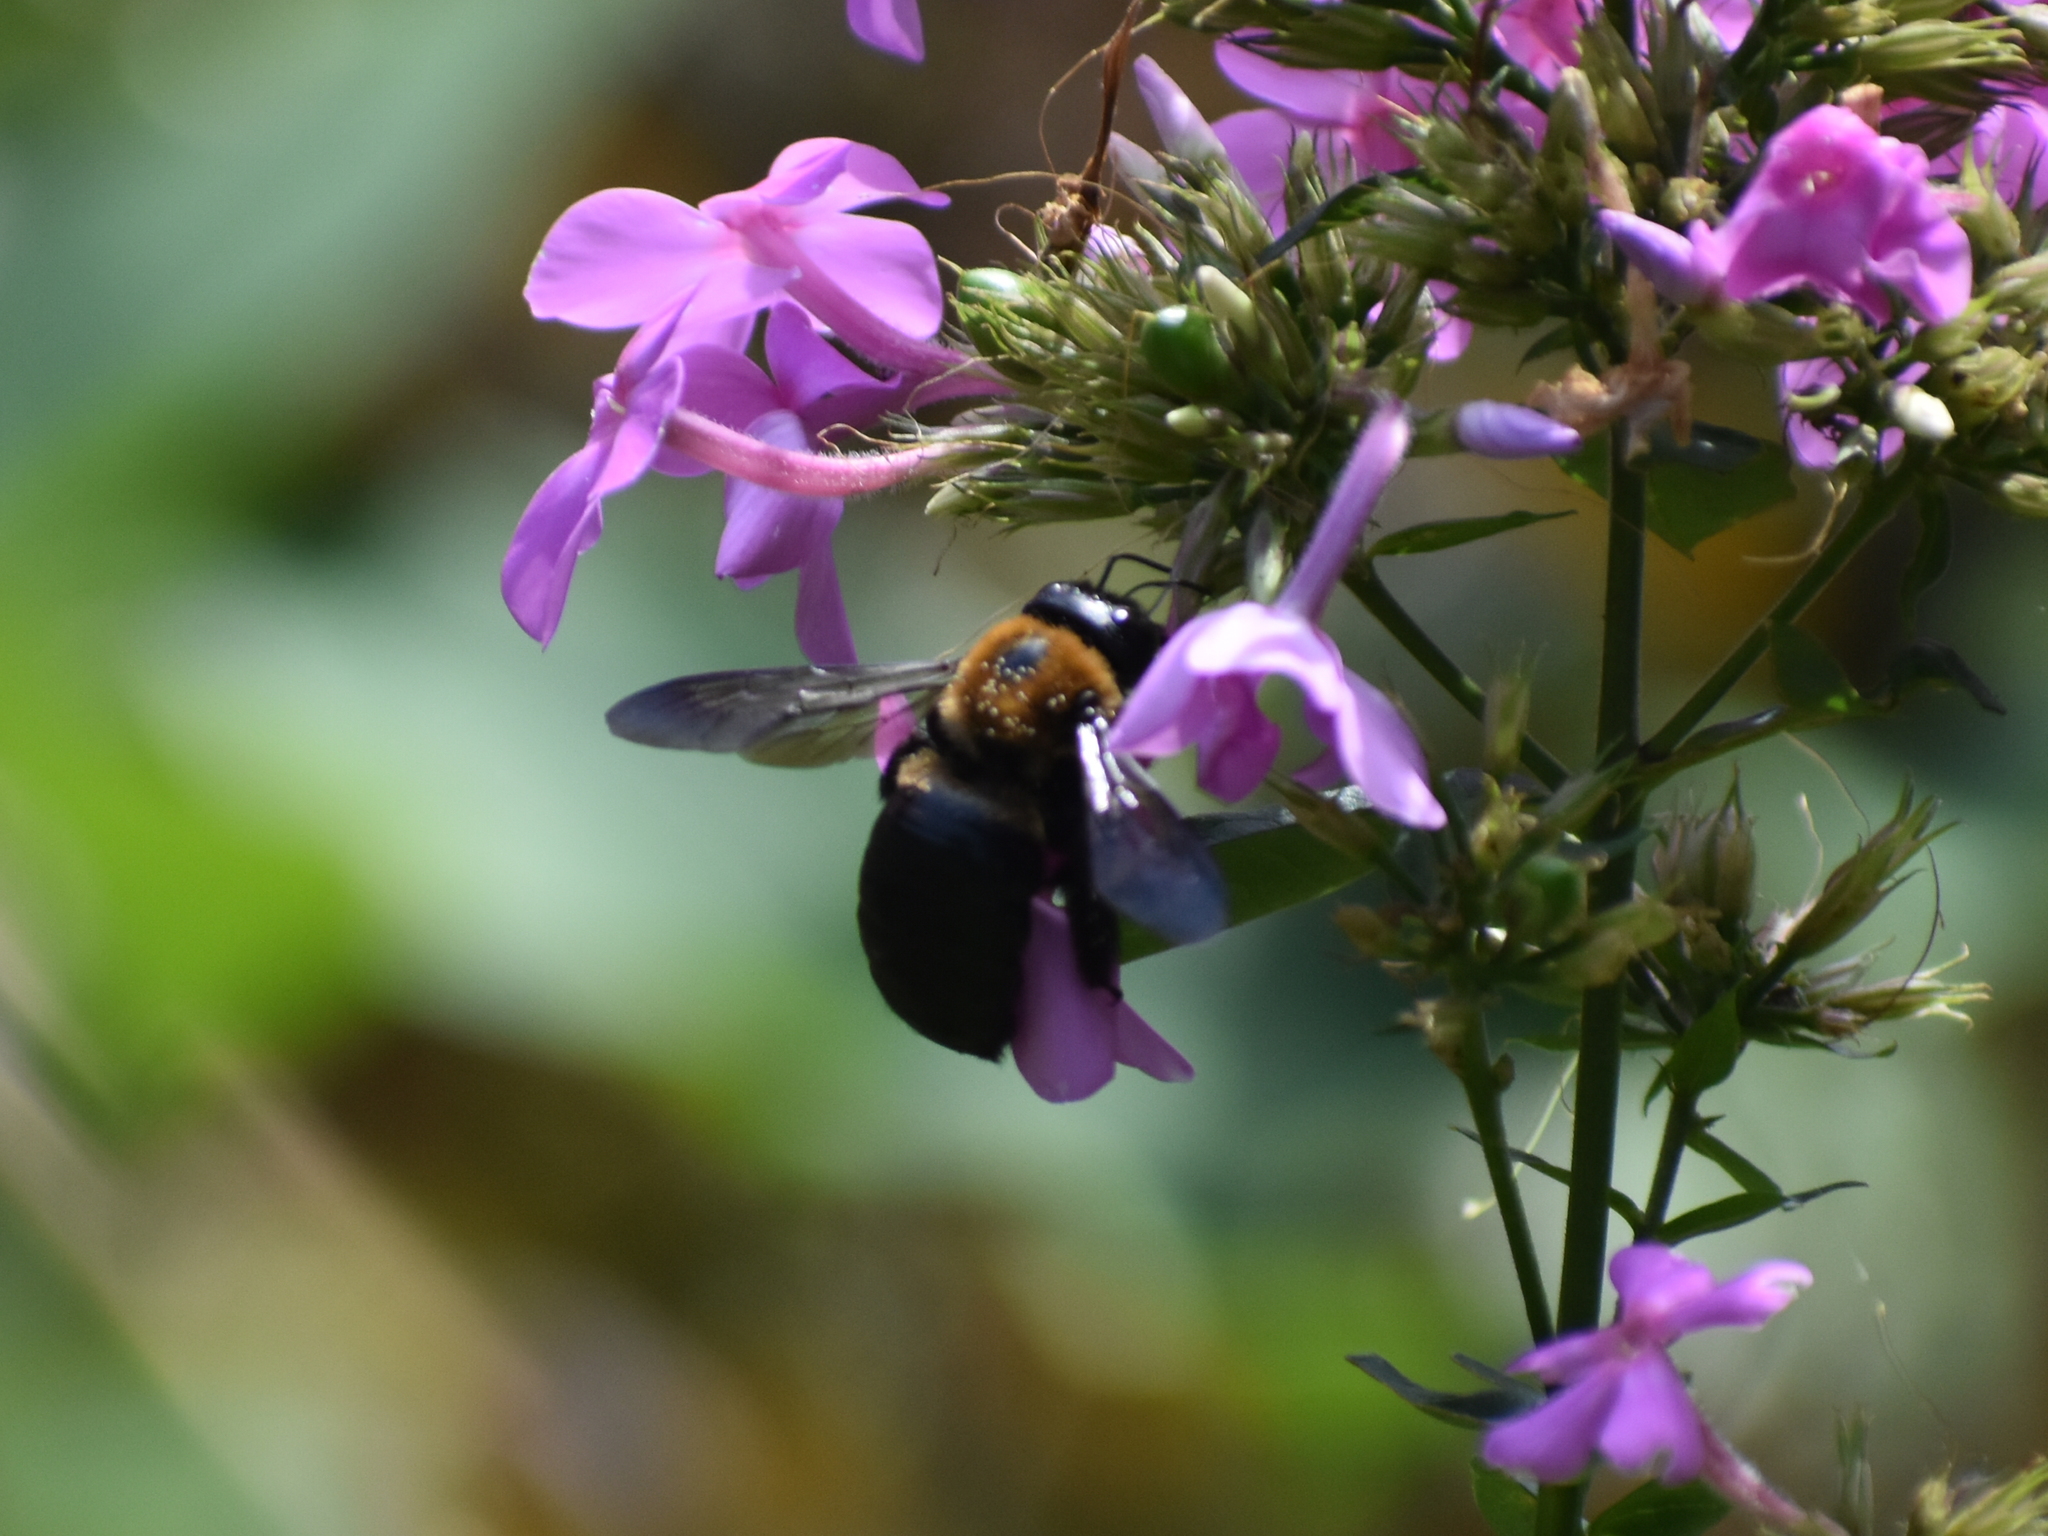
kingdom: Animalia
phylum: Arthropoda
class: Insecta
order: Hymenoptera
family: Apidae
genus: Xylocopa
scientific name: Xylocopa virginica
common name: Carpenter bee
